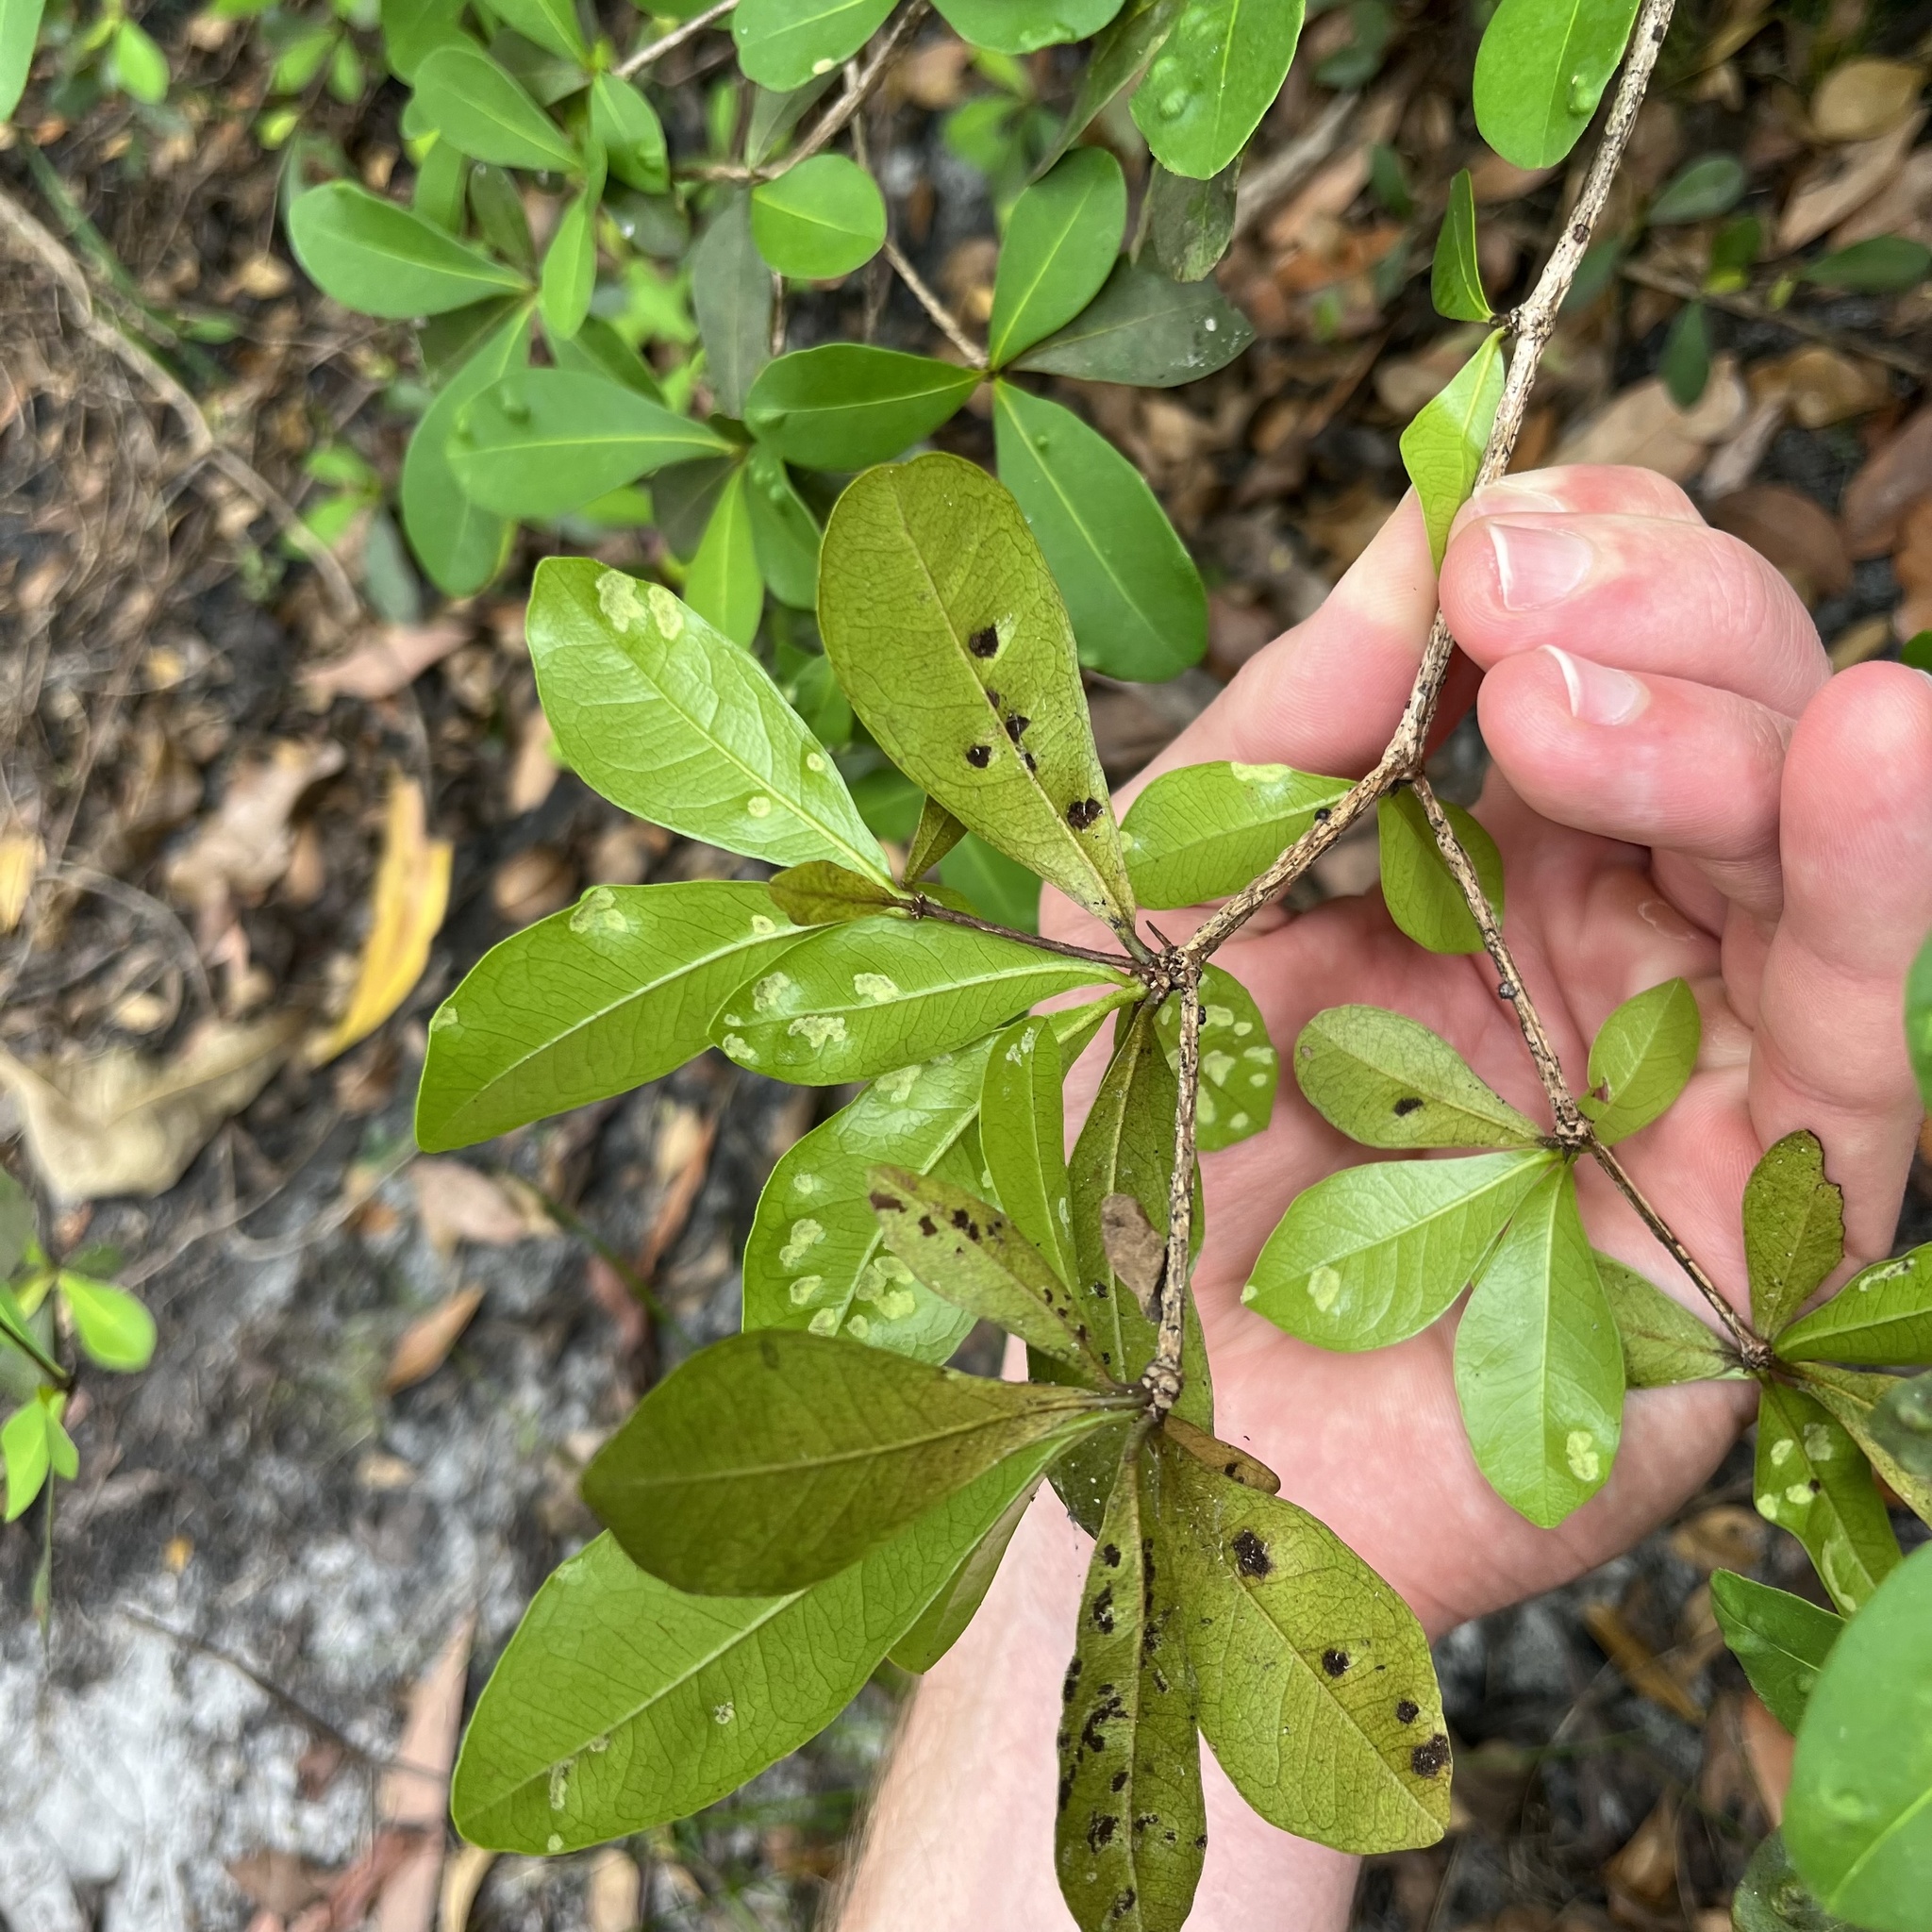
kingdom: Plantae
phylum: Tracheophyta
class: Magnoliopsida
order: Myrtales
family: Combretaceae
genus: Terminalia
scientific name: Terminalia buceras
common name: Black-olive
